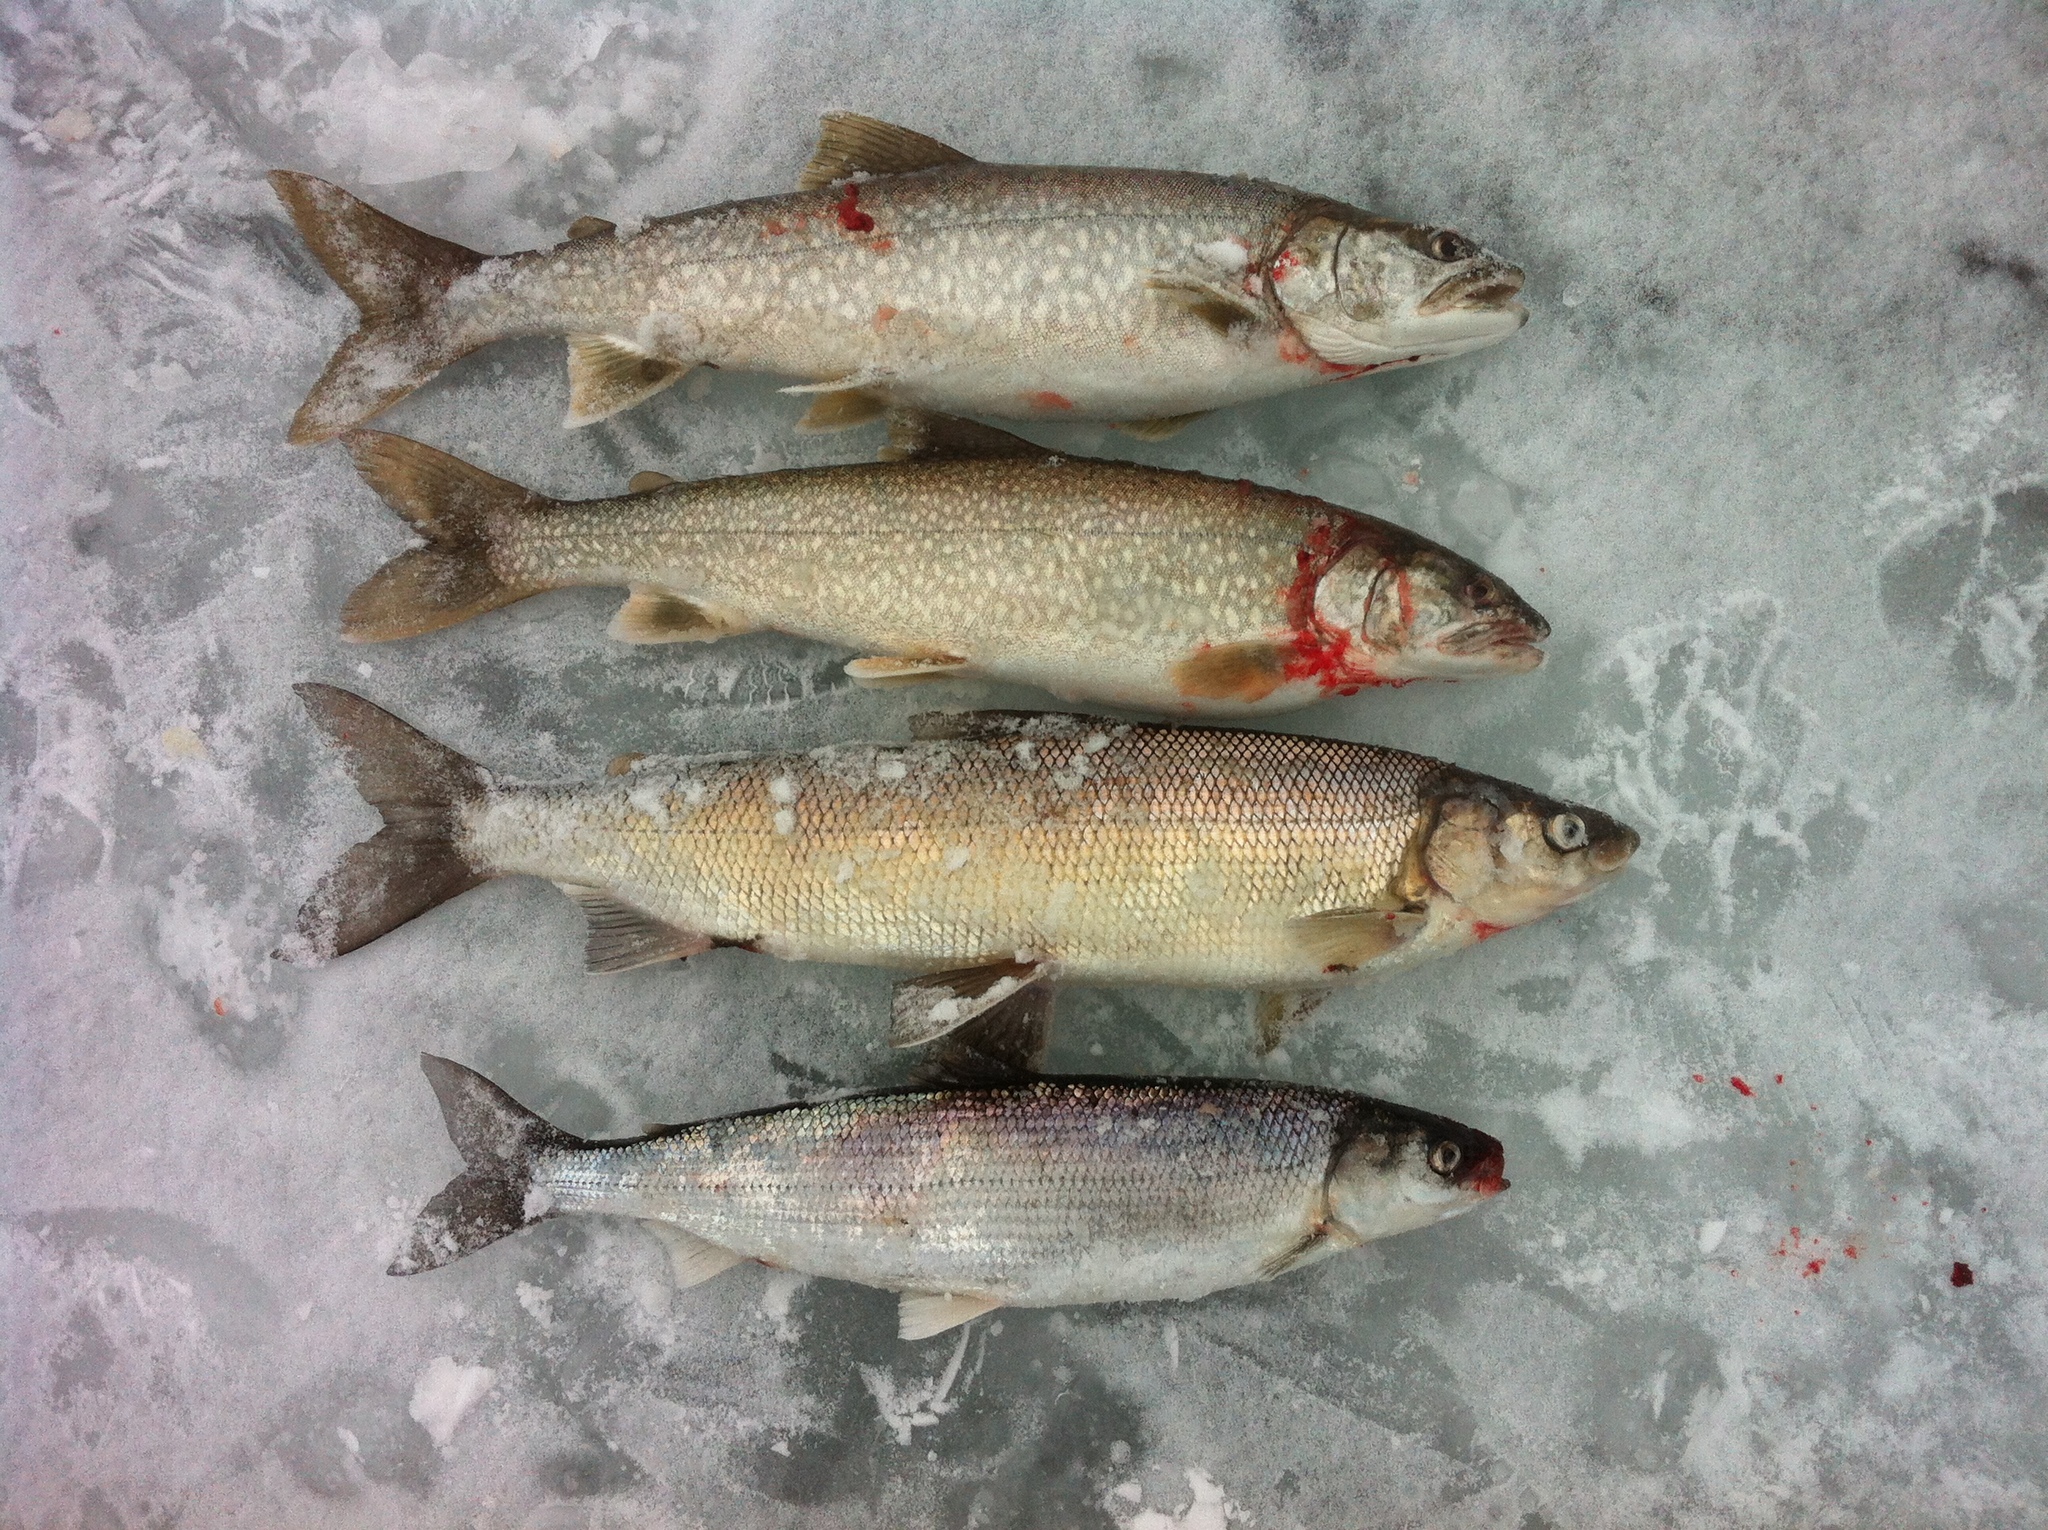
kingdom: Animalia
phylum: Chordata
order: Salmoniformes
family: Salmonidae
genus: Coregonus
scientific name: Coregonus clupeaformis
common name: Lake whitefish
